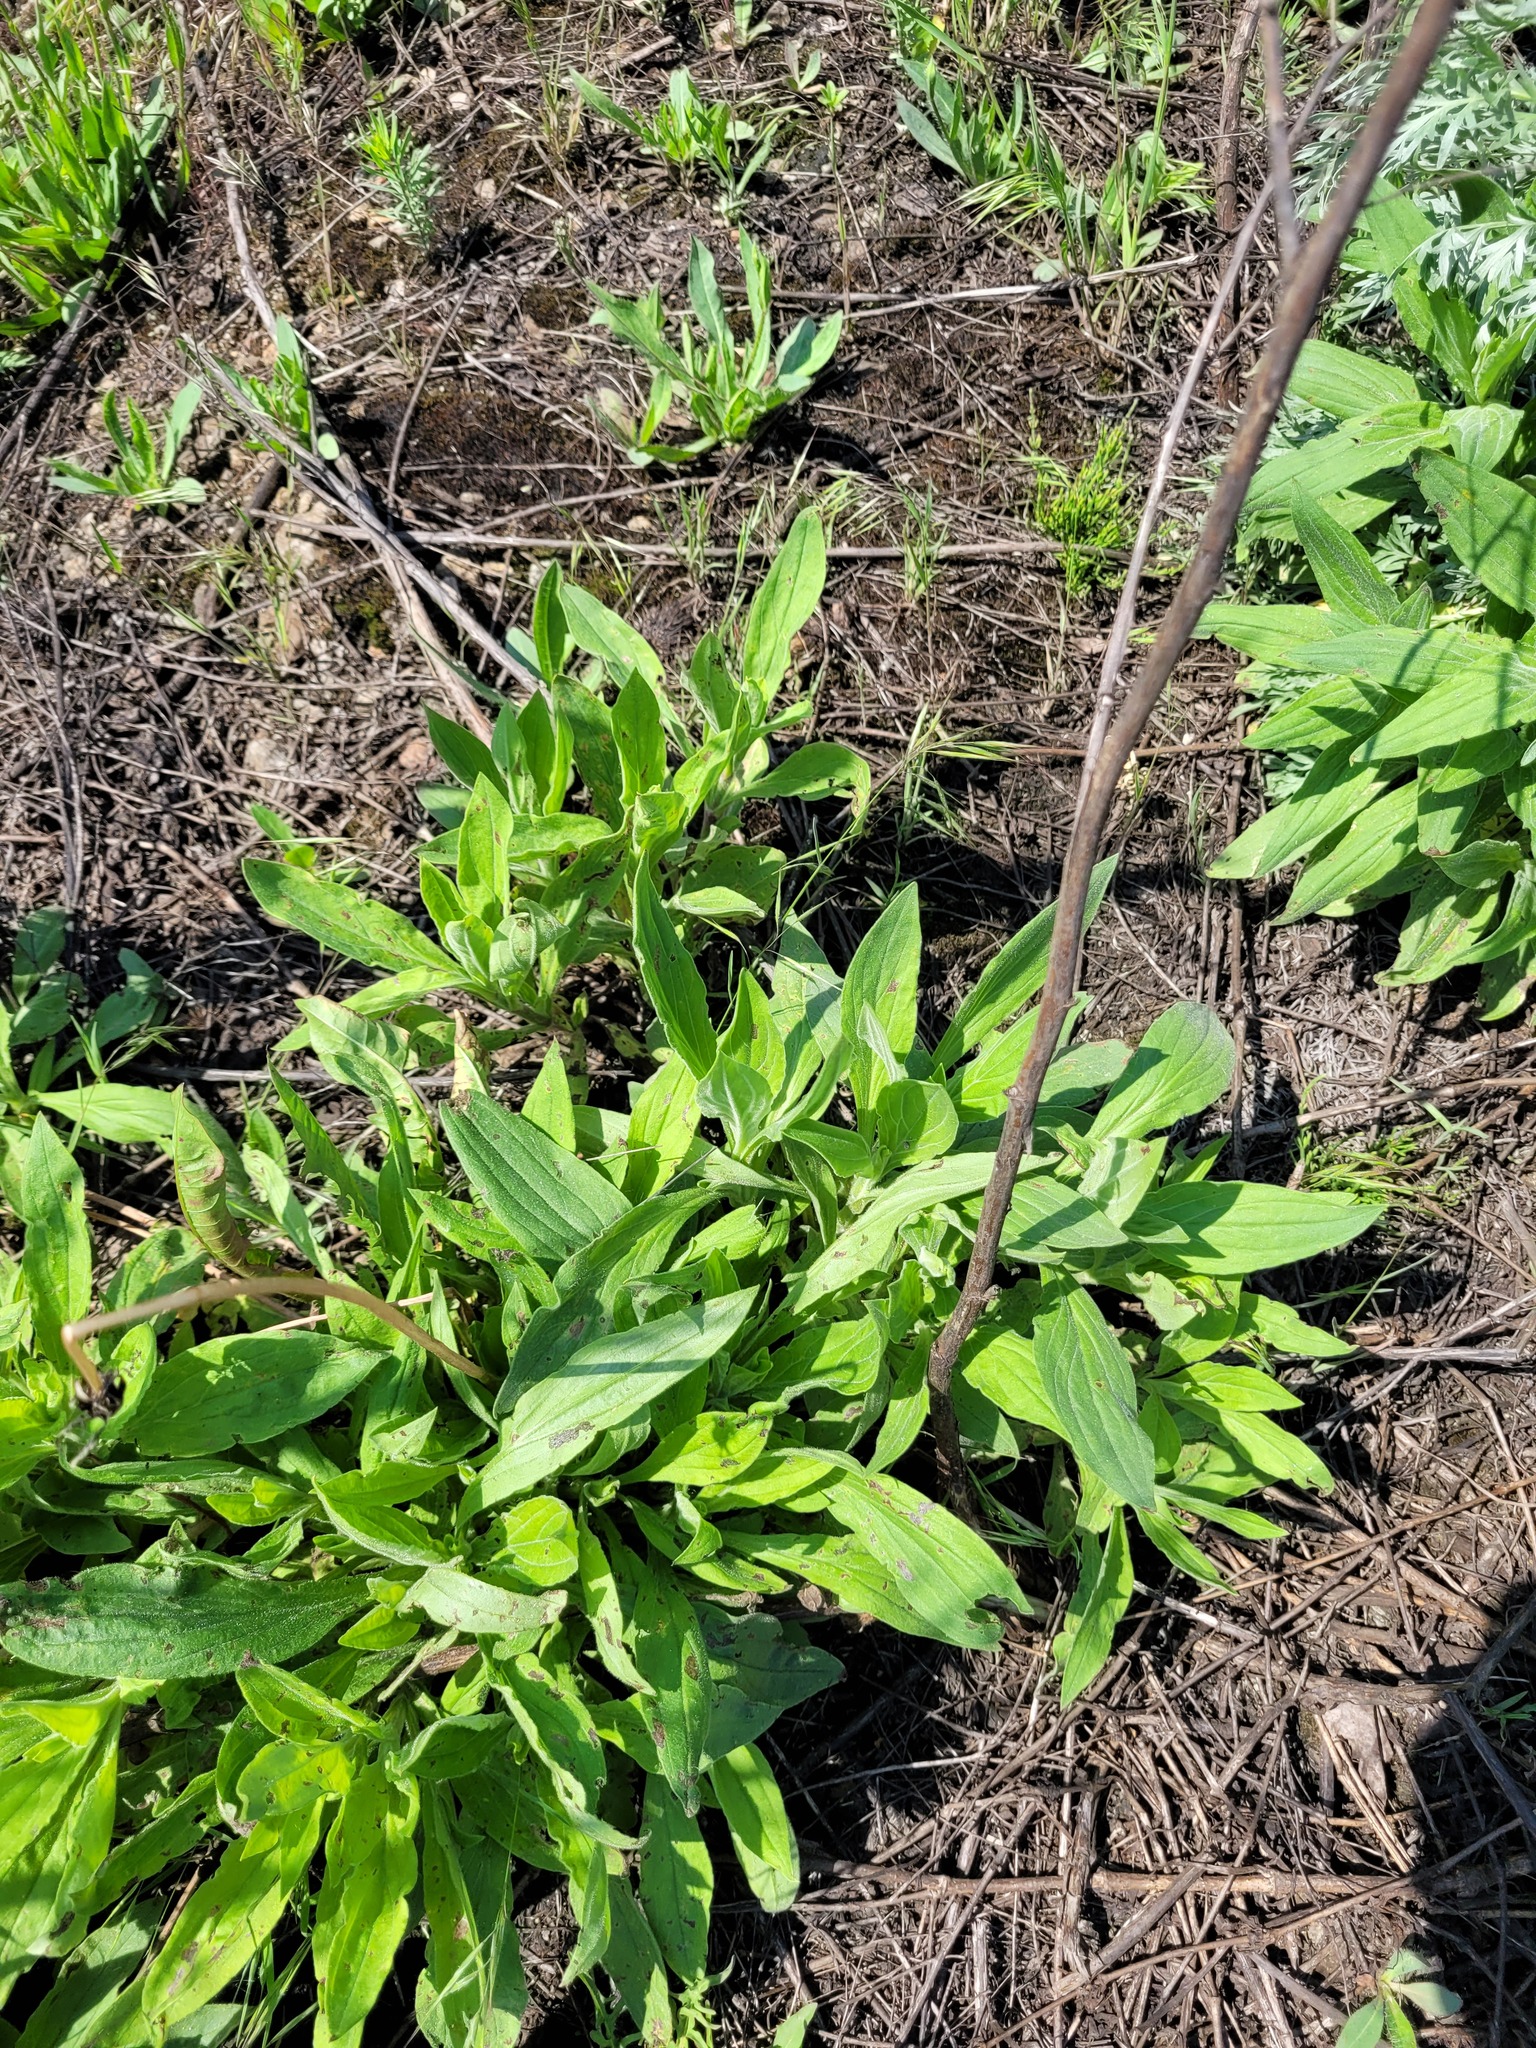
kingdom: Plantae
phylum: Tracheophyta
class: Magnoliopsida
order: Caryophyllales
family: Caryophyllaceae
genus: Silene
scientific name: Silene latifolia
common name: White campion
